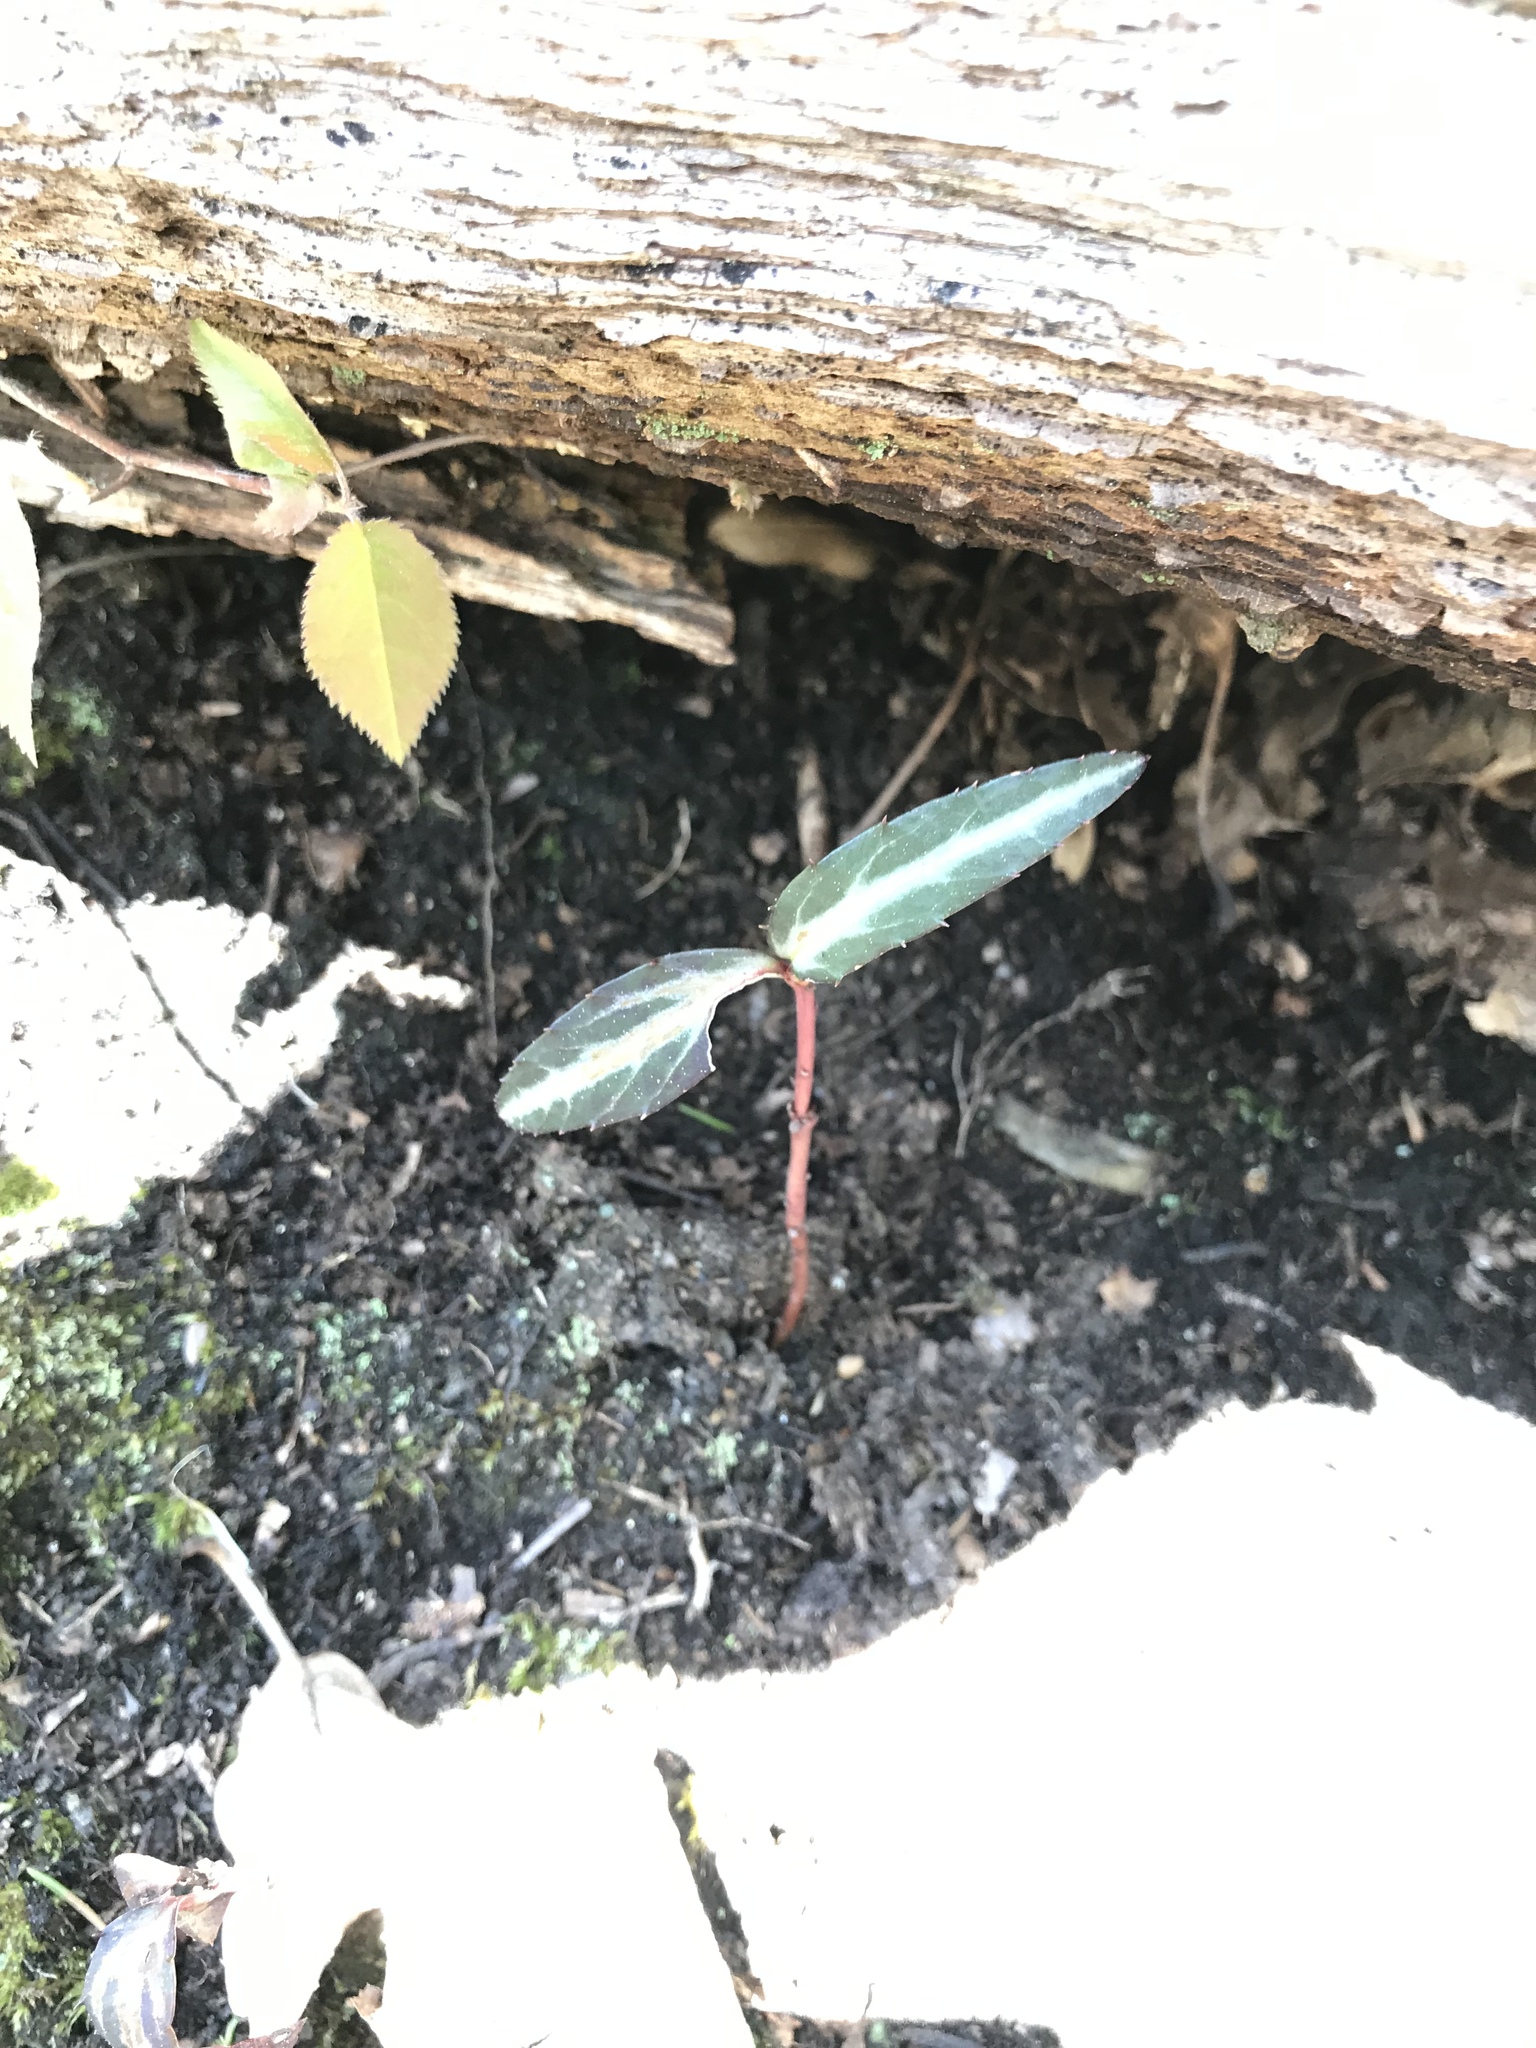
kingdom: Plantae
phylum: Tracheophyta
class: Magnoliopsida
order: Ericales
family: Ericaceae
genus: Chimaphila
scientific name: Chimaphila maculata
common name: Spotted pipsissewa
